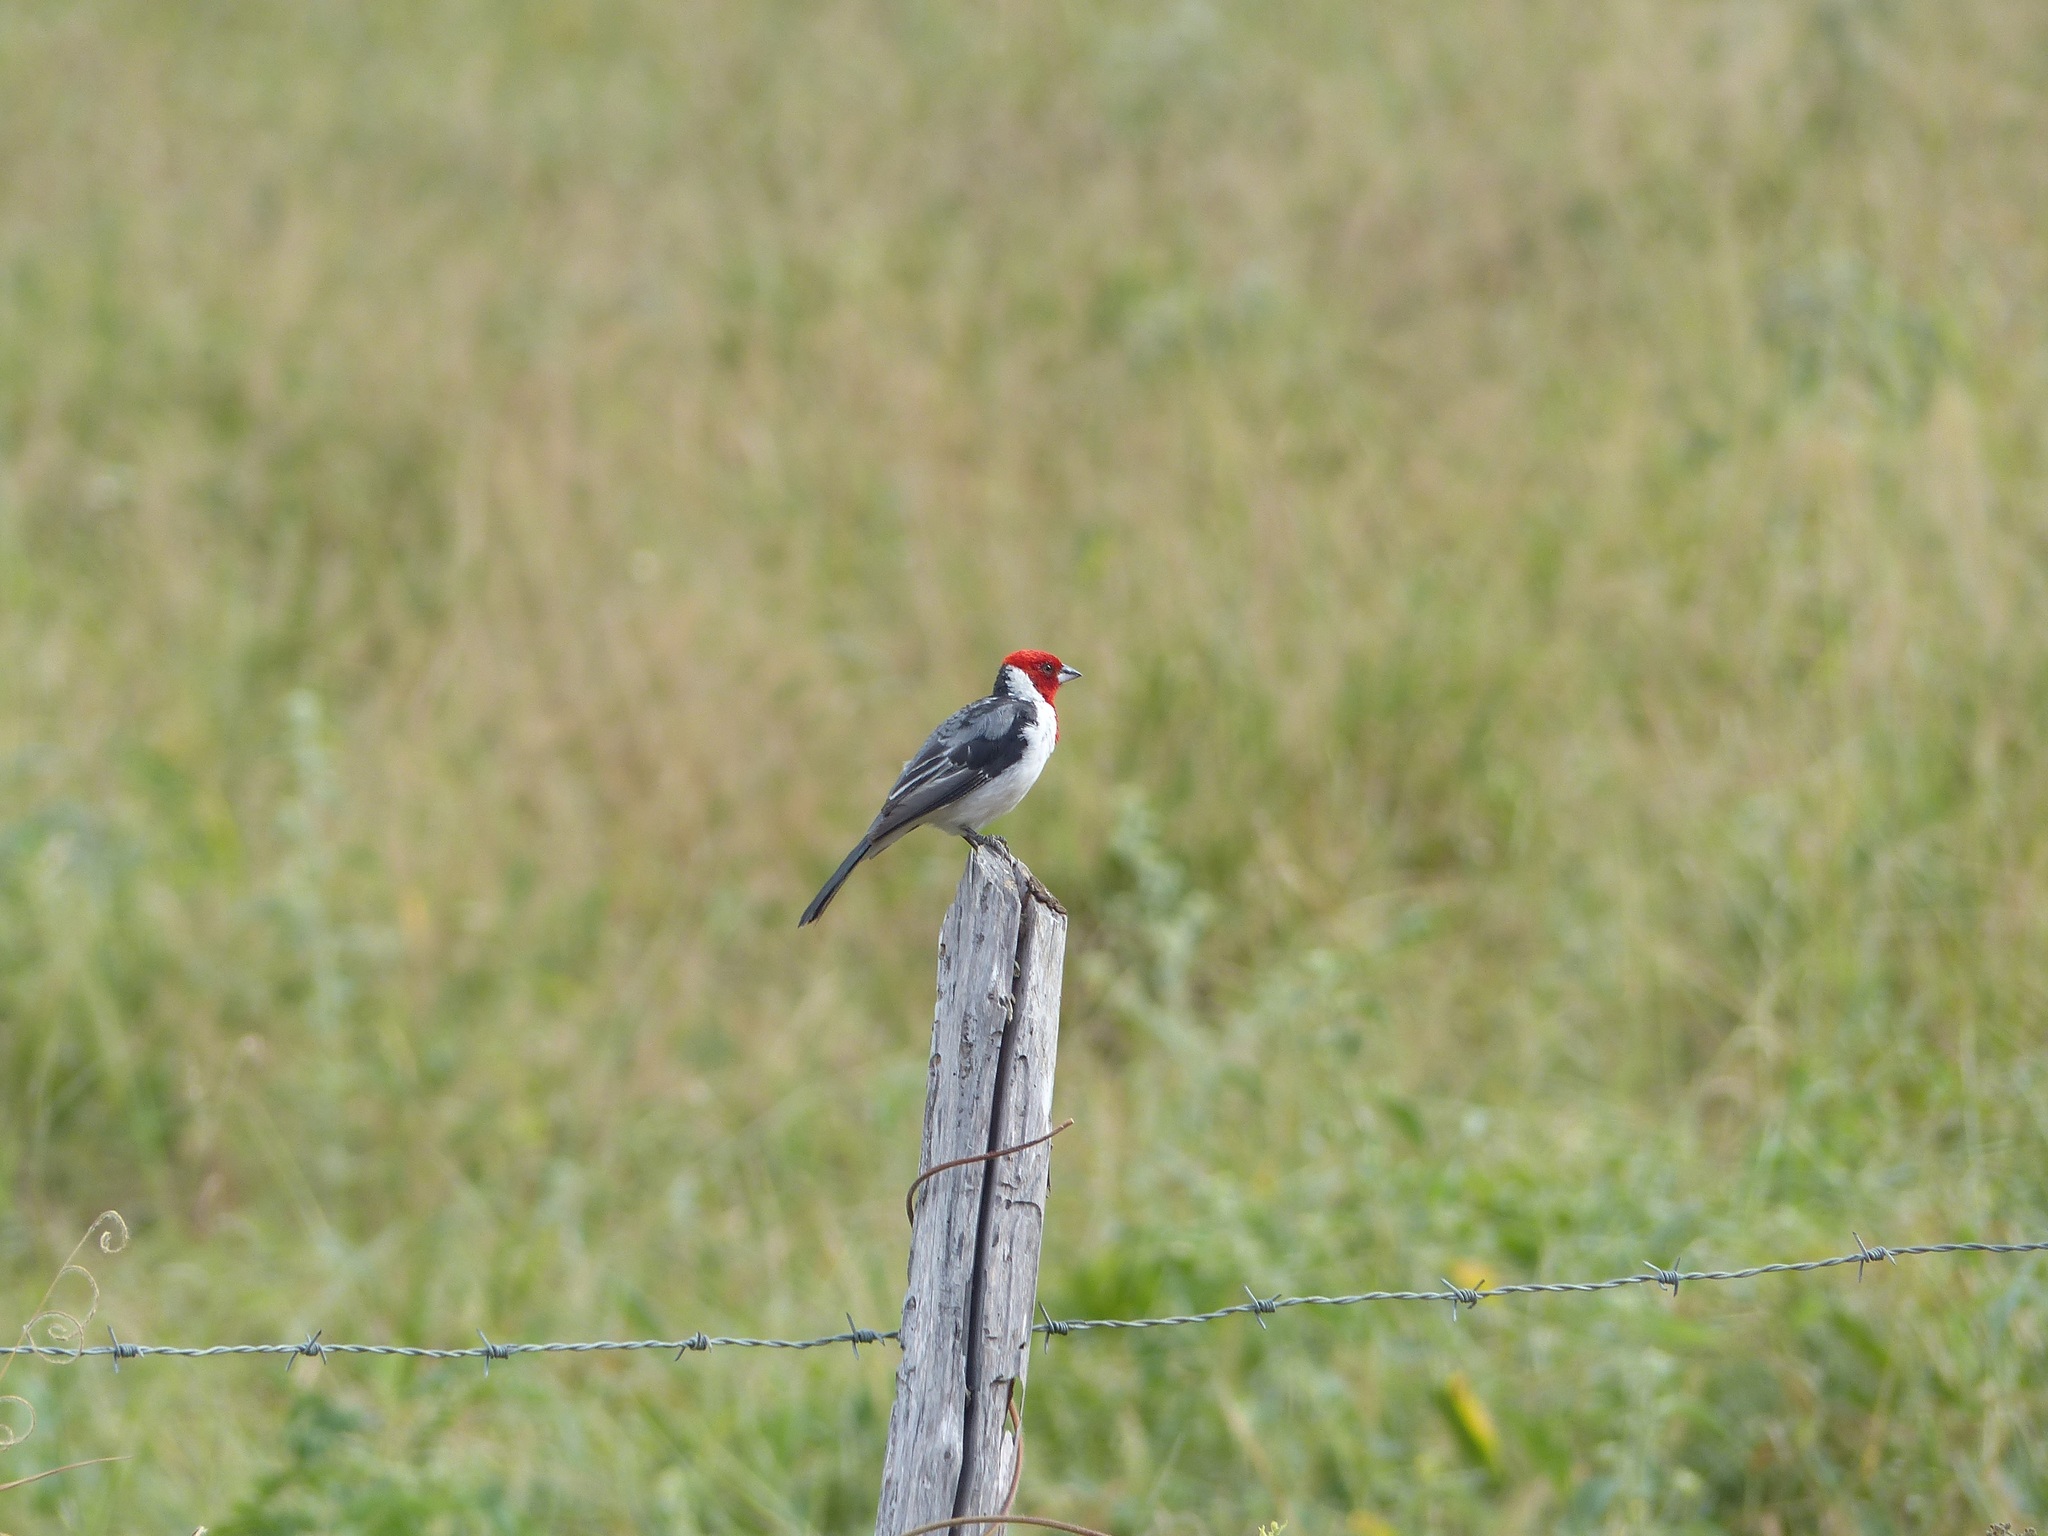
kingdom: Animalia
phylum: Chordata
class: Aves
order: Passeriformes
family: Thraupidae
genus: Paroaria
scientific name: Paroaria dominicana
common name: Red-cowled cardinal
